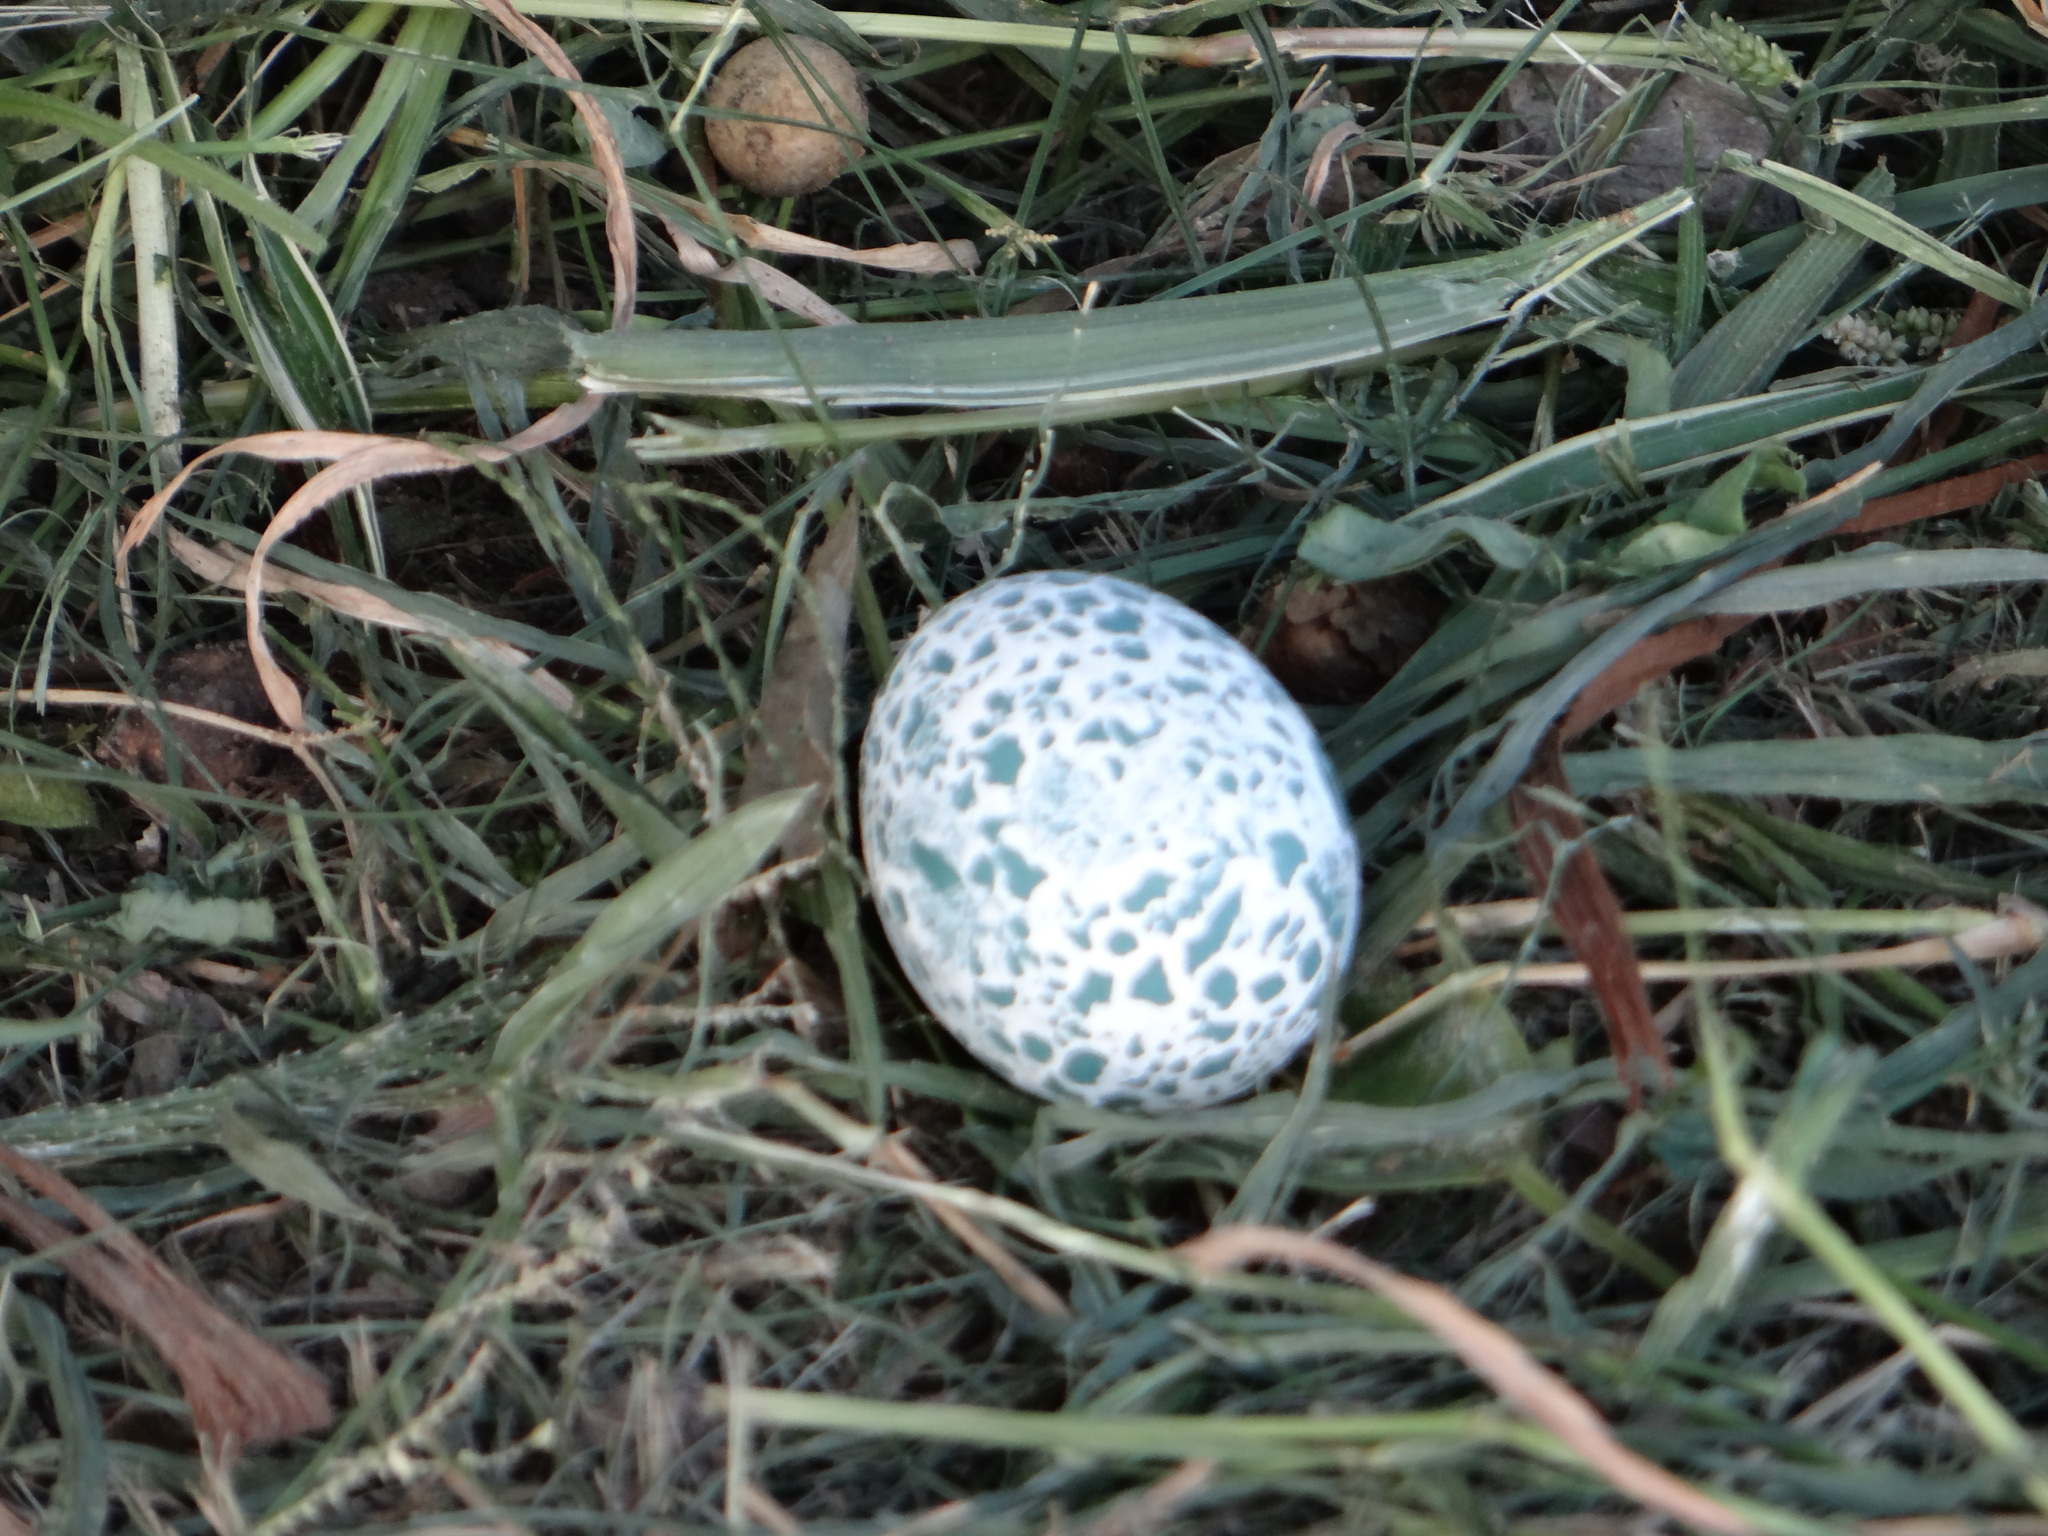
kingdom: Animalia
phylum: Chordata
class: Aves
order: Cuculiformes
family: Cuculidae
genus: Guira
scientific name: Guira guira
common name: Guira cuckoo
